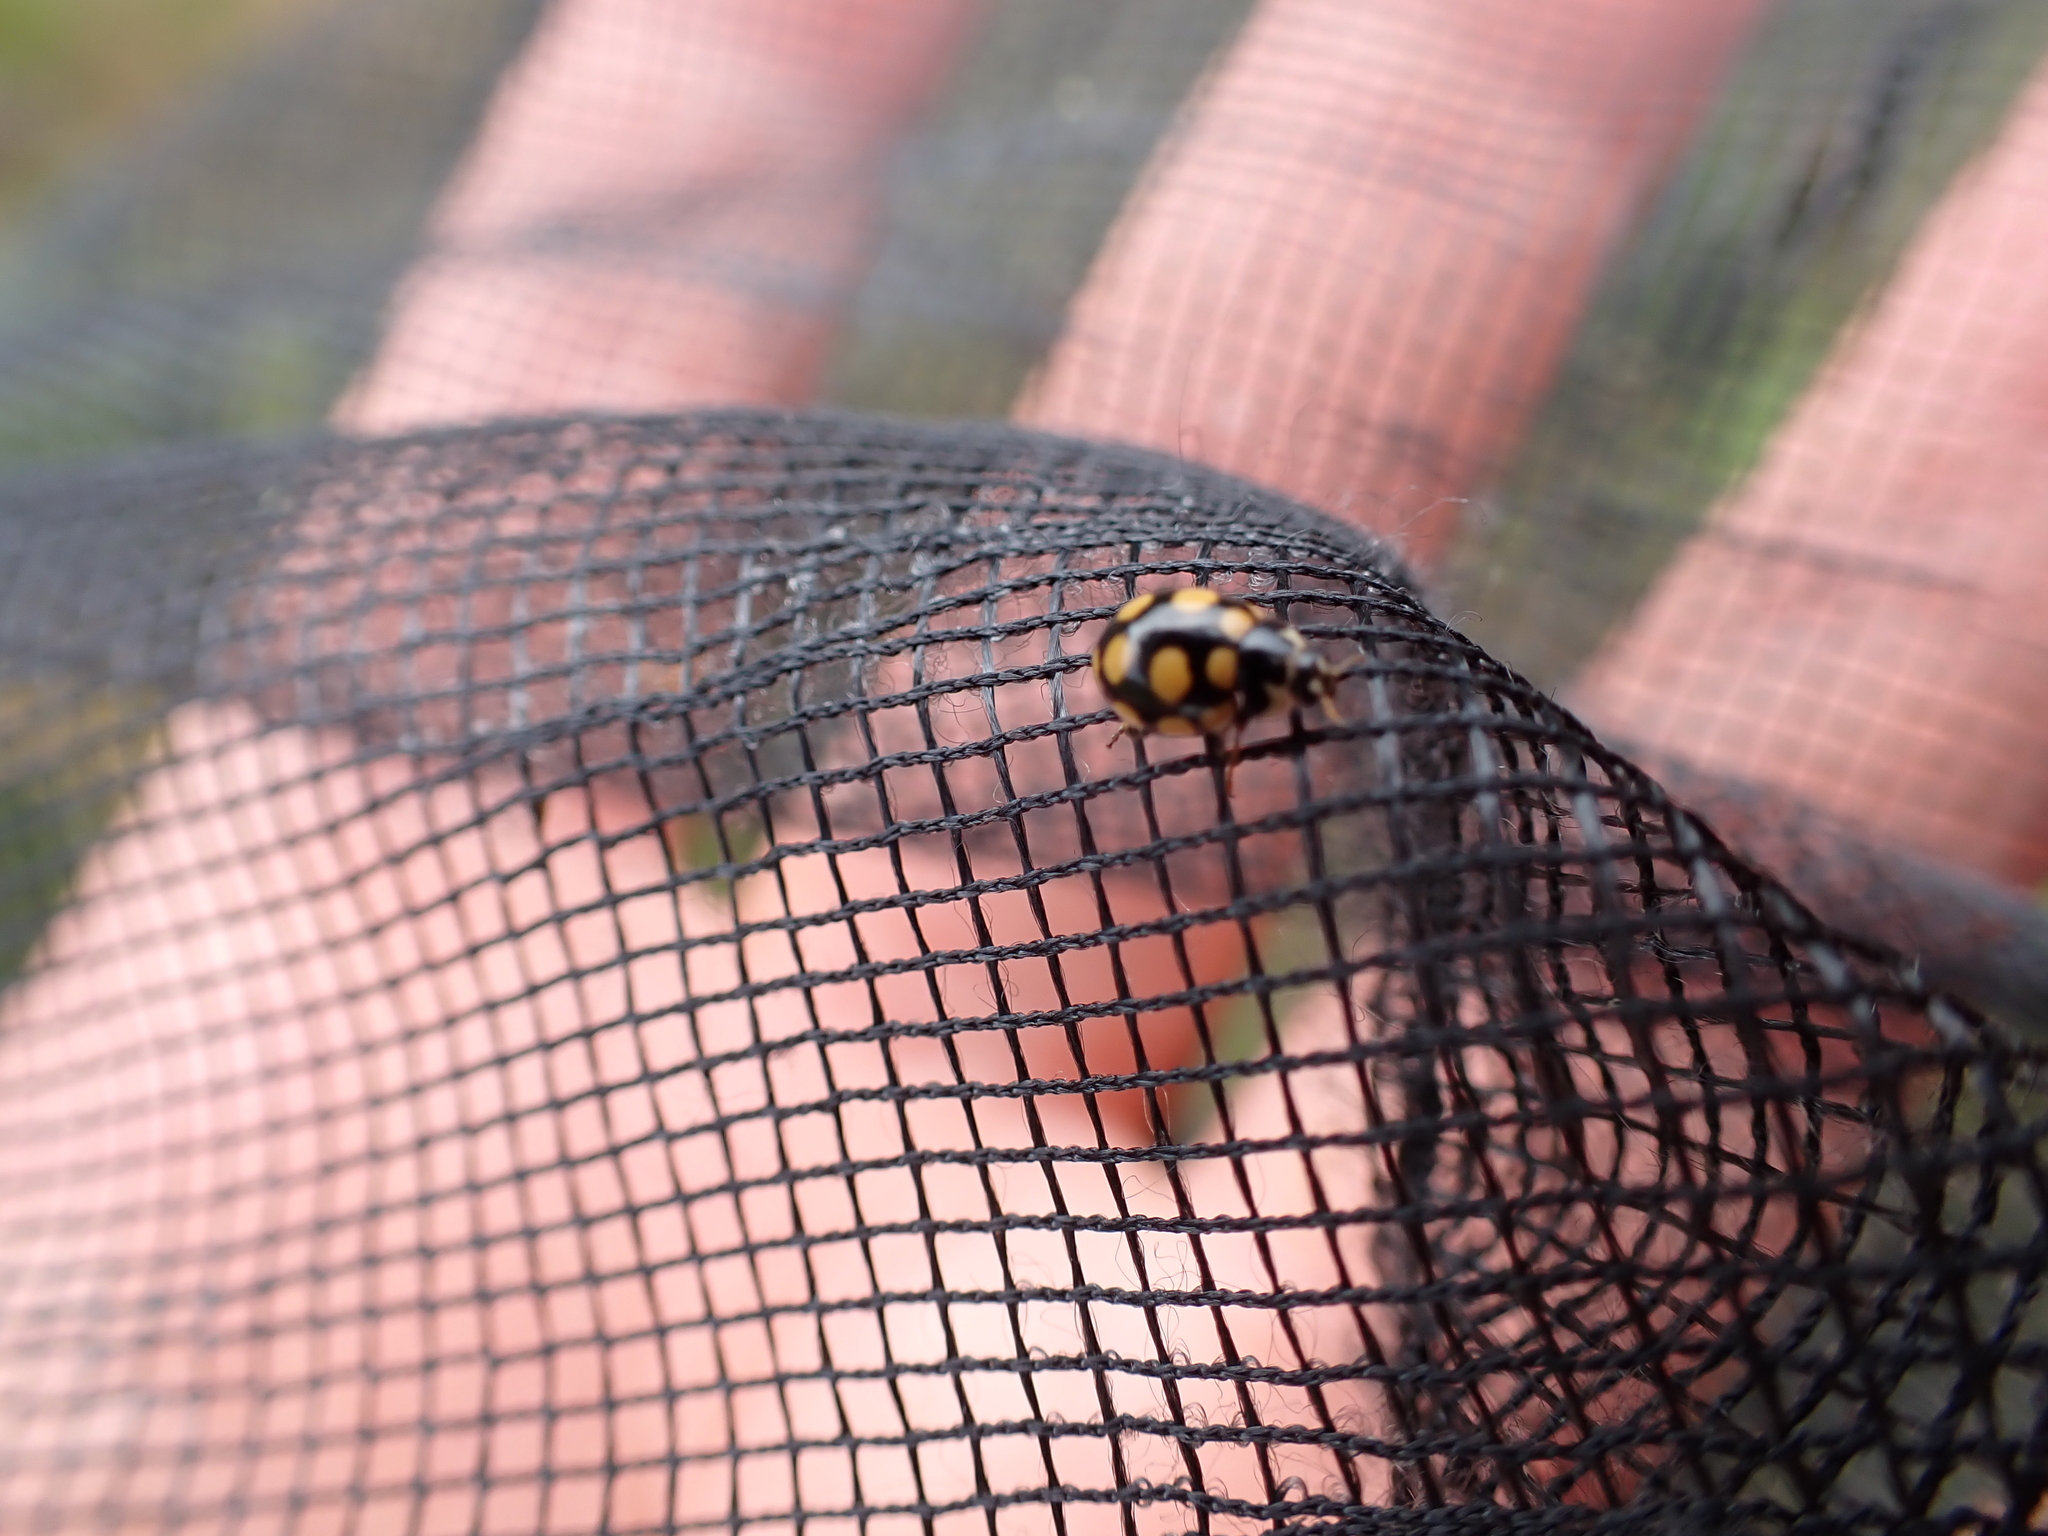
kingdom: Animalia
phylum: Arthropoda
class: Insecta
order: Coleoptera
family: Coccinellidae
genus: Coccinula
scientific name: Coccinula quatuordecimpustulata
